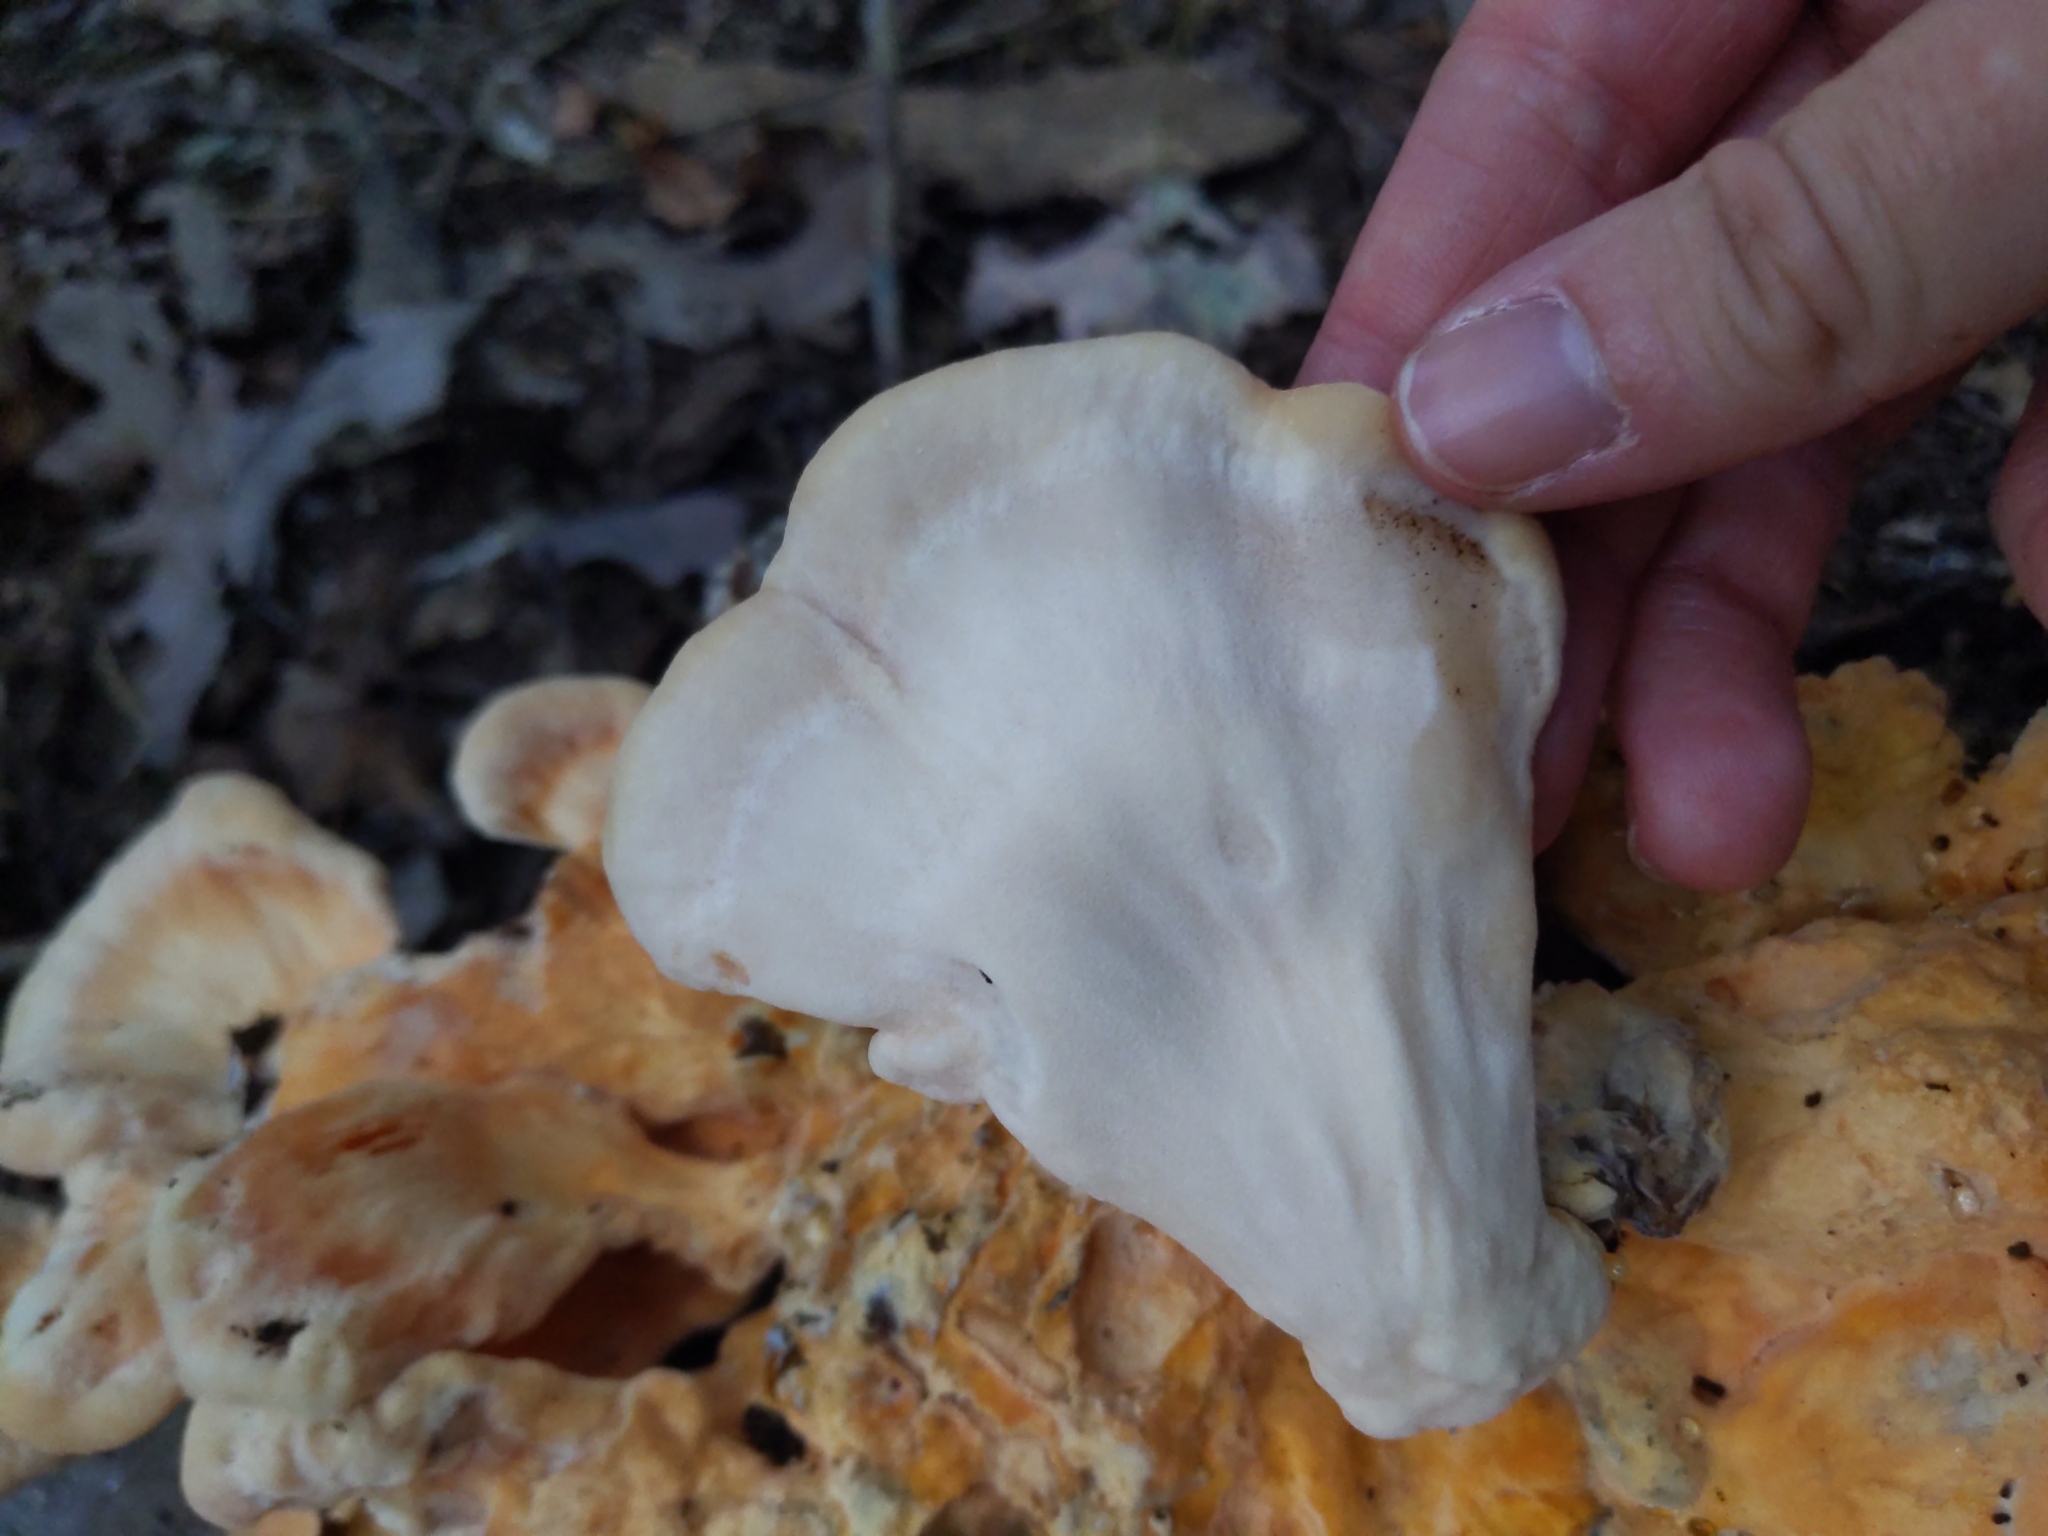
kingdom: Fungi
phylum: Basidiomycota
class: Agaricomycetes
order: Polyporales
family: Laetiporaceae
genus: Laetiporus
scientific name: Laetiporus sulphureus
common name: Chicken of the woods
